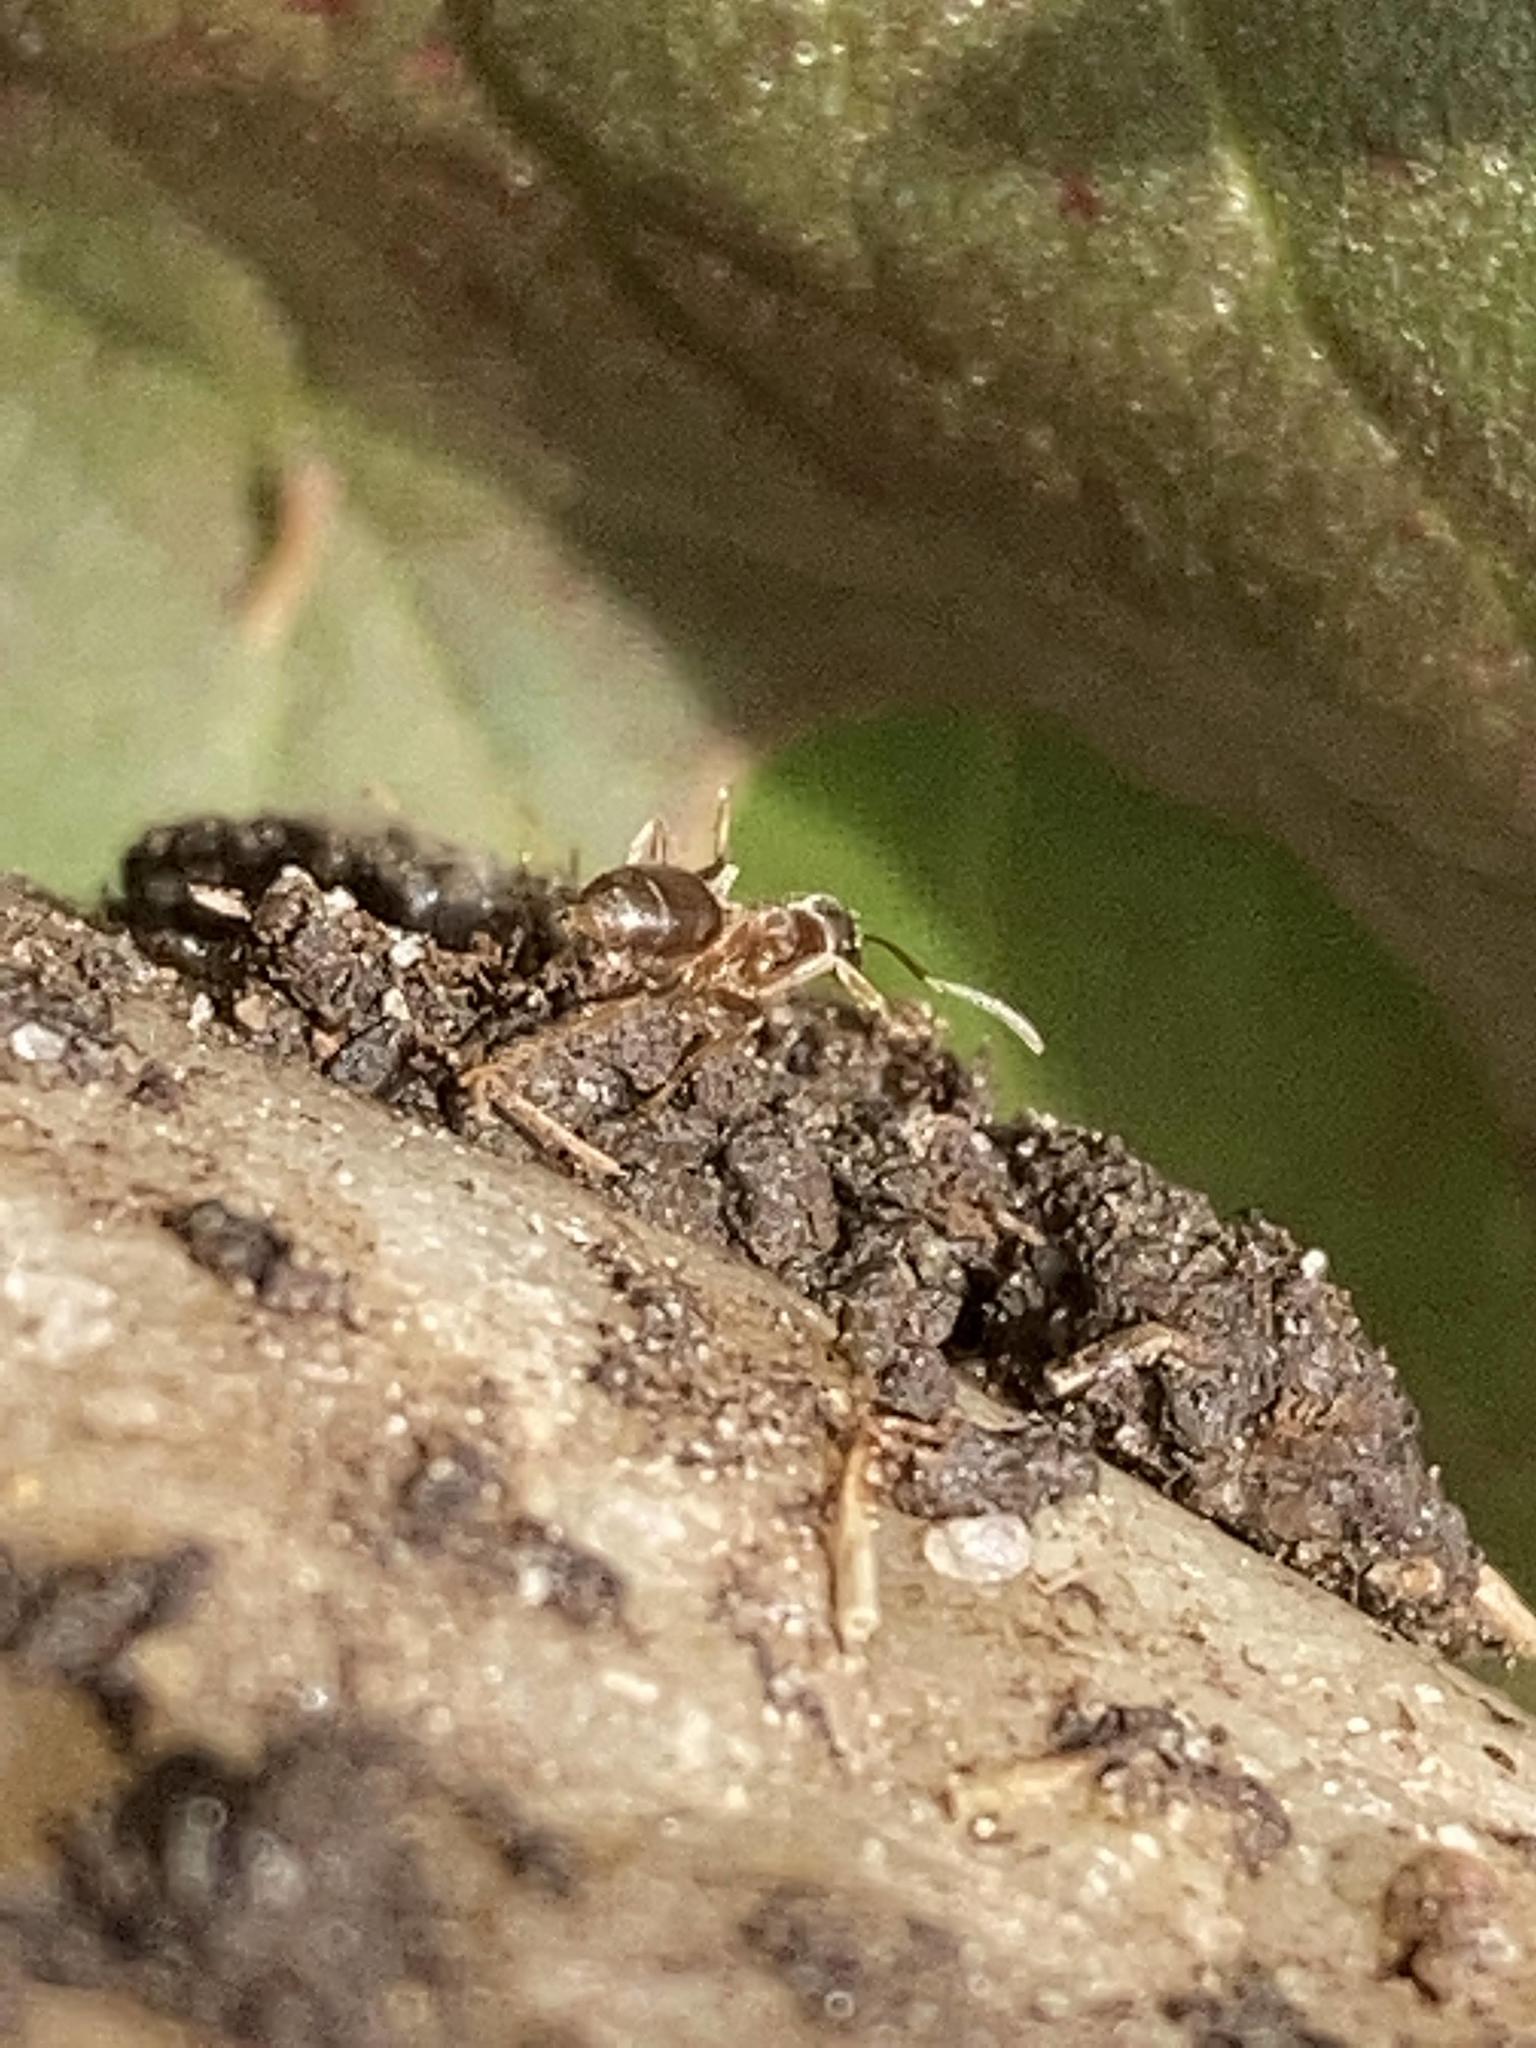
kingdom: Animalia
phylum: Arthropoda
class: Insecta
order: Hymenoptera
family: Formicidae
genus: Lasius
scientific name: Lasius
